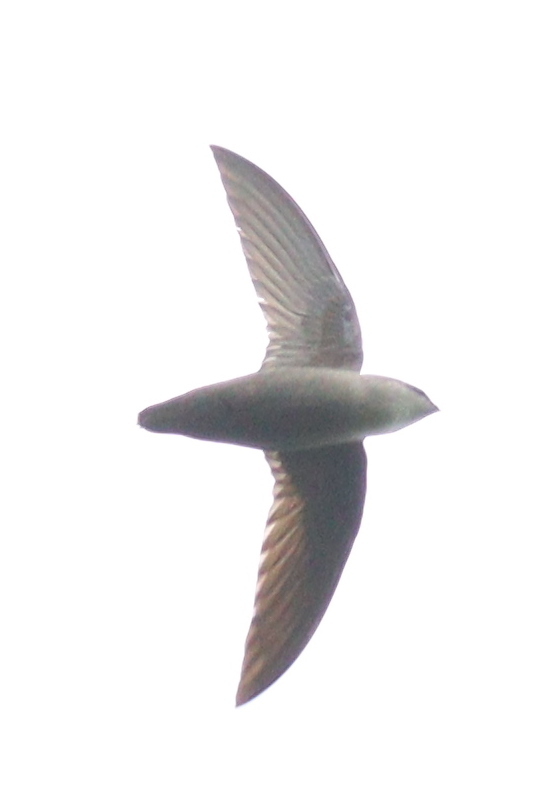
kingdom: Animalia
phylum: Chordata
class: Aves
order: Apodiformes
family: Apodidae
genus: Chaetura
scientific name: Chaetura pelagica
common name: Chimney swift
